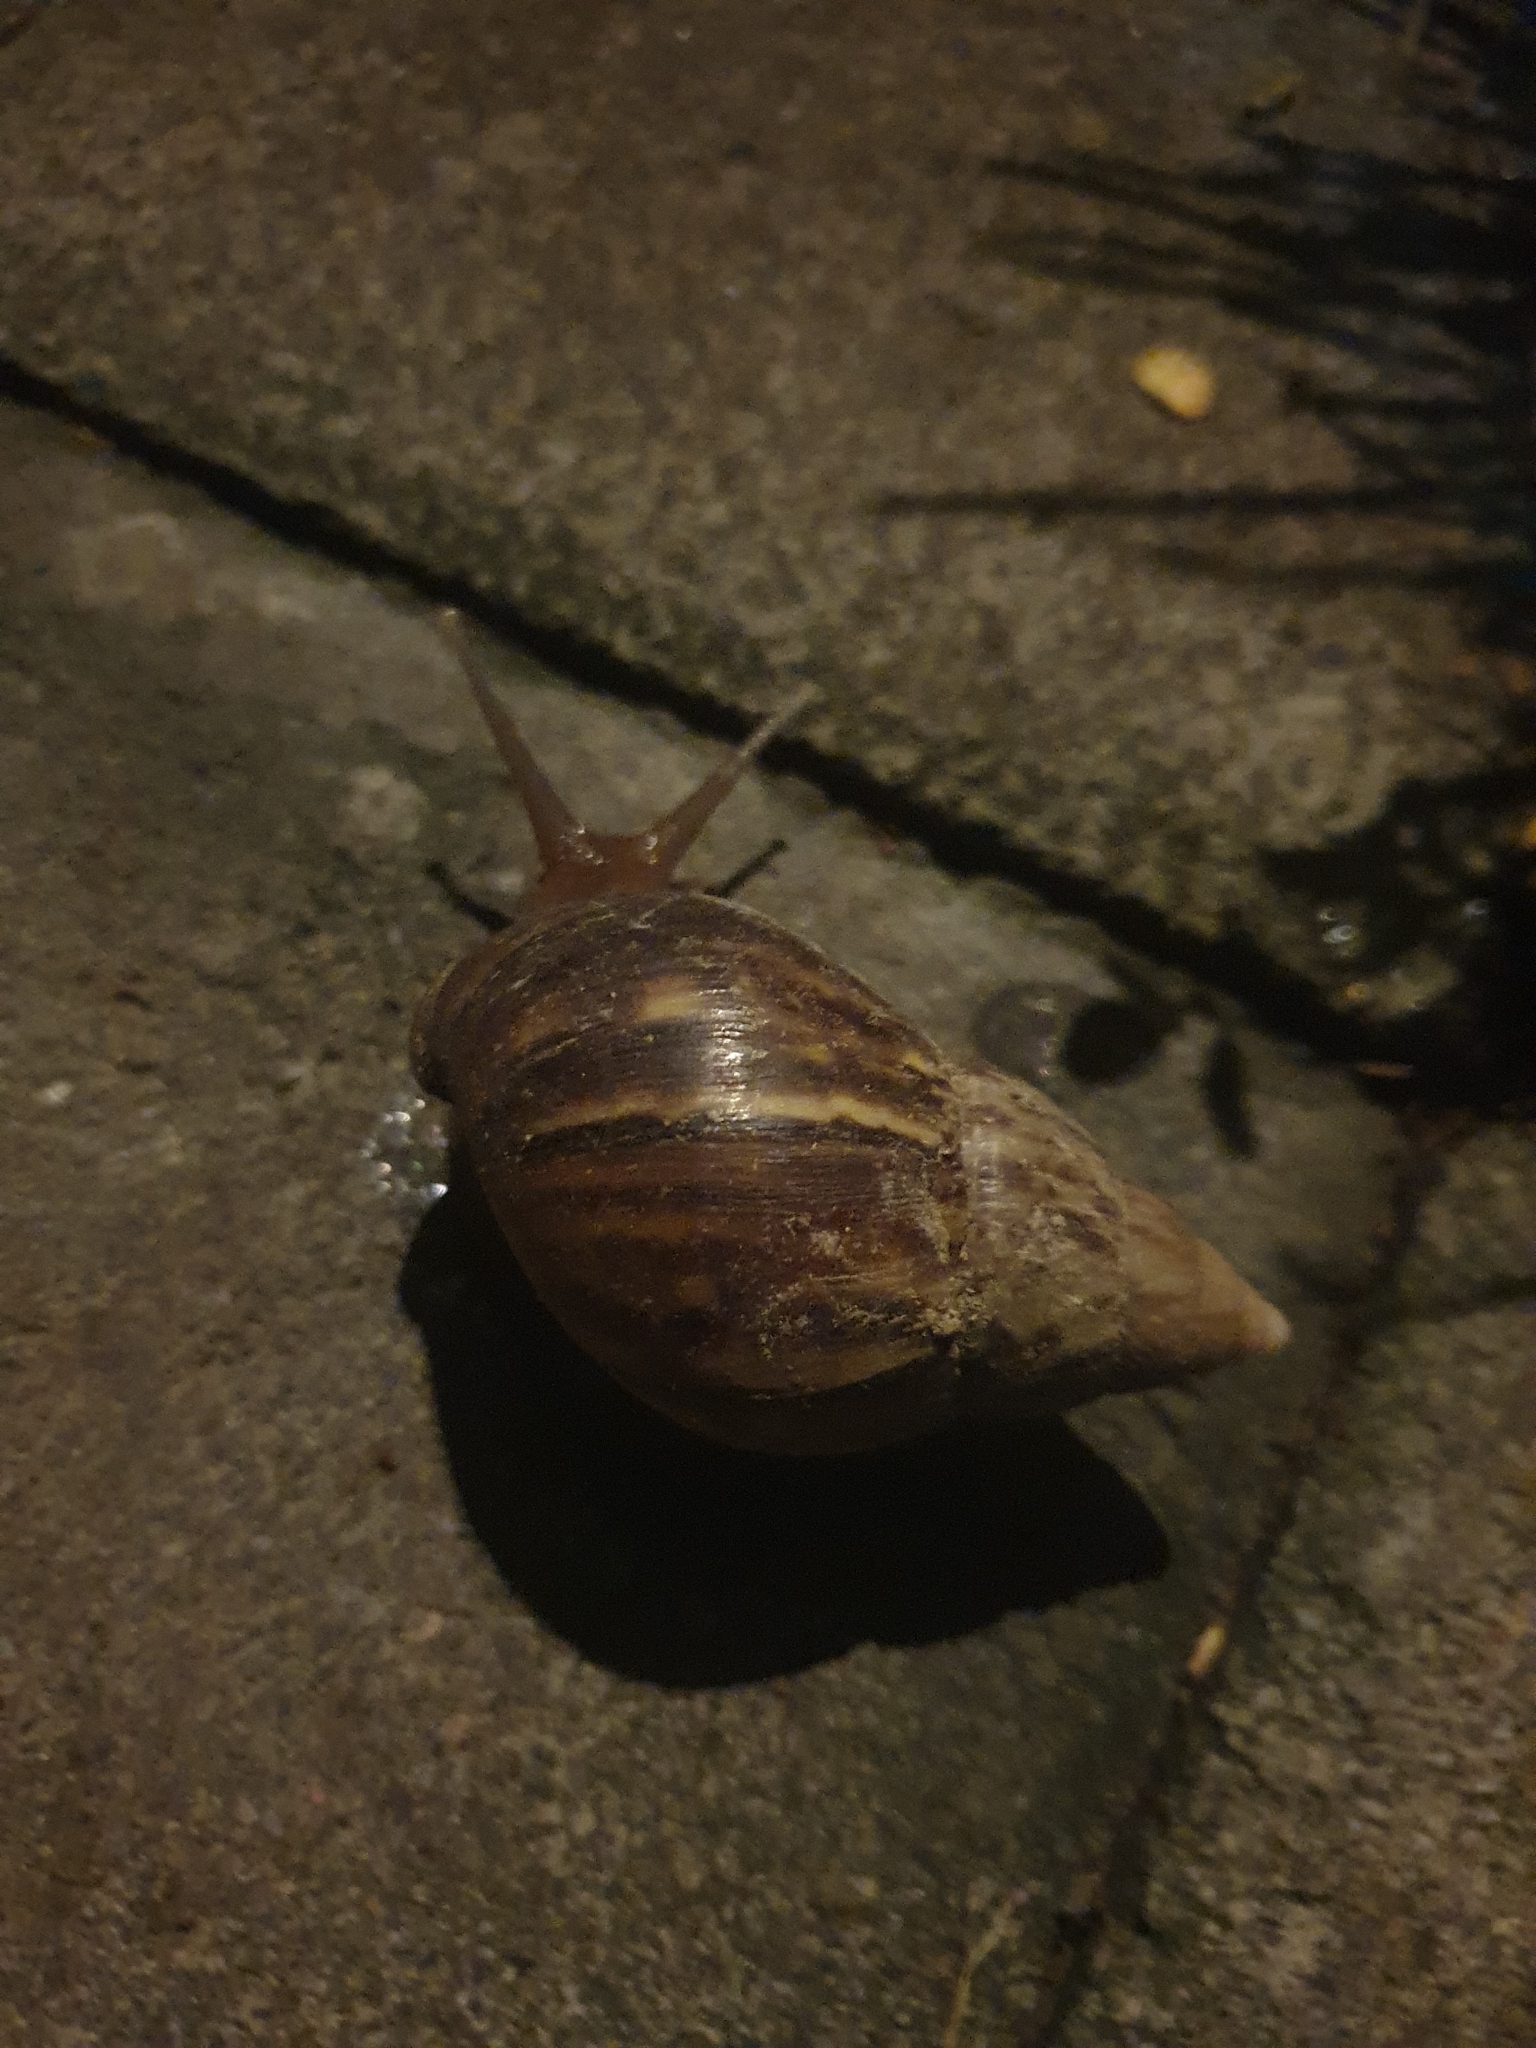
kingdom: Animalia
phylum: Mollusca
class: Gastropoda
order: Stylommatophora
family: Achatinidae
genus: Lissachatina
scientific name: Lissachatina fulica
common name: Giant african snail
